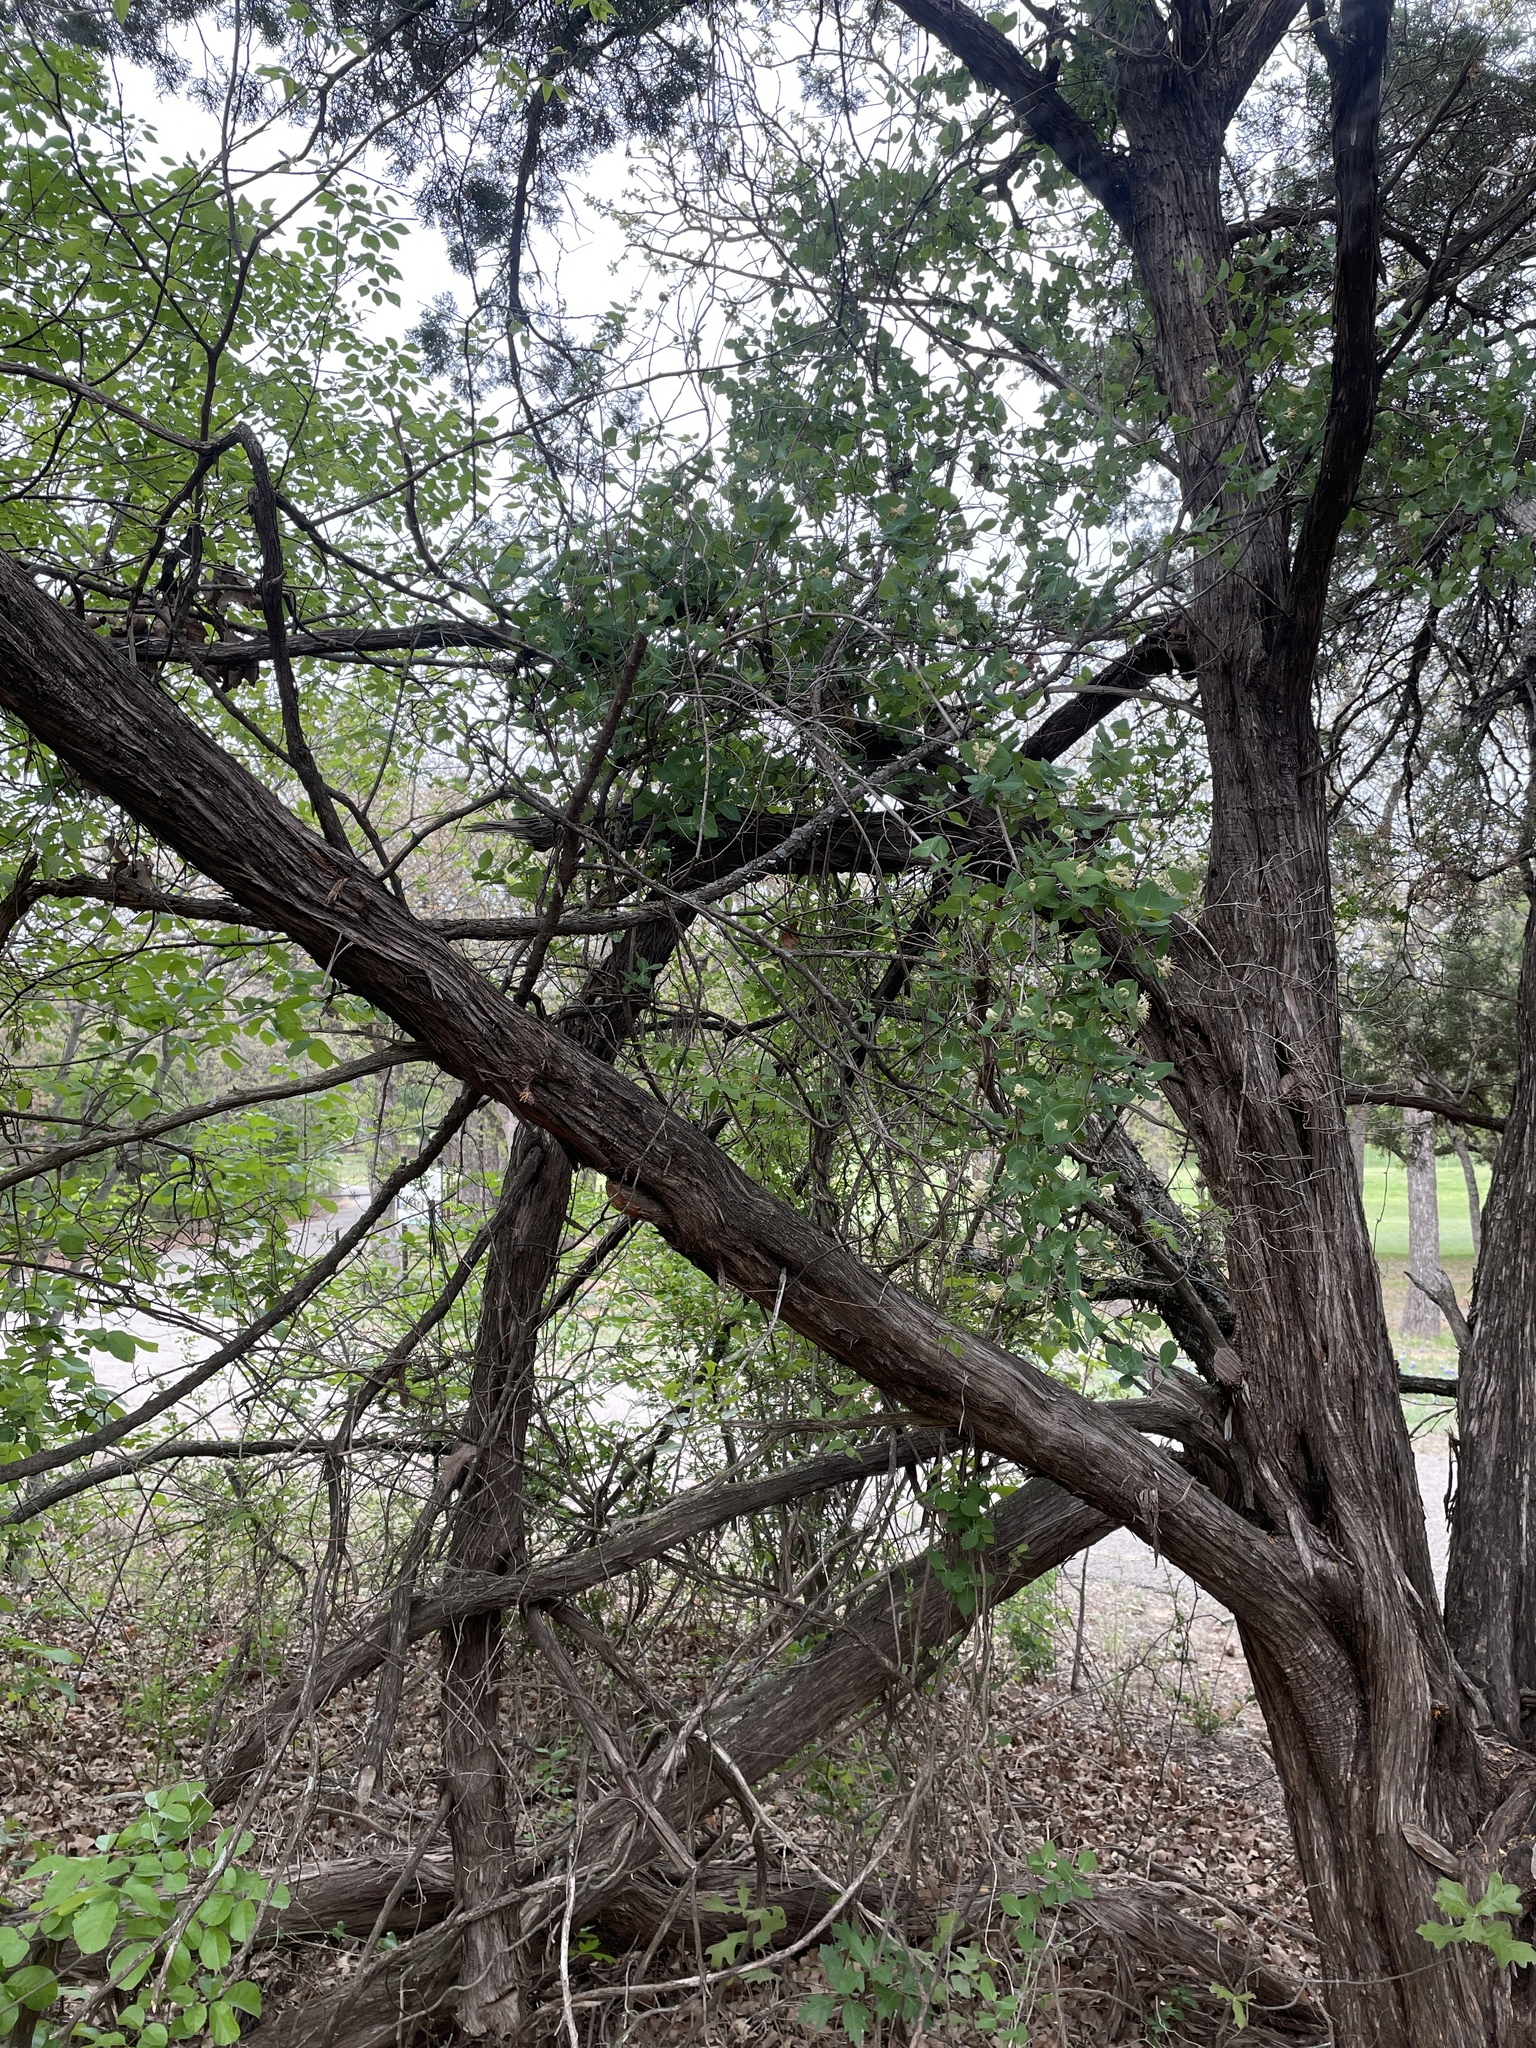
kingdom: Plantae
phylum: Tracheophyta
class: Magnoliopsida
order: Dipsacales
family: Caprifoliaceae
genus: Lonicera
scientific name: Lonicera albiflora
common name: White honeysuckle
